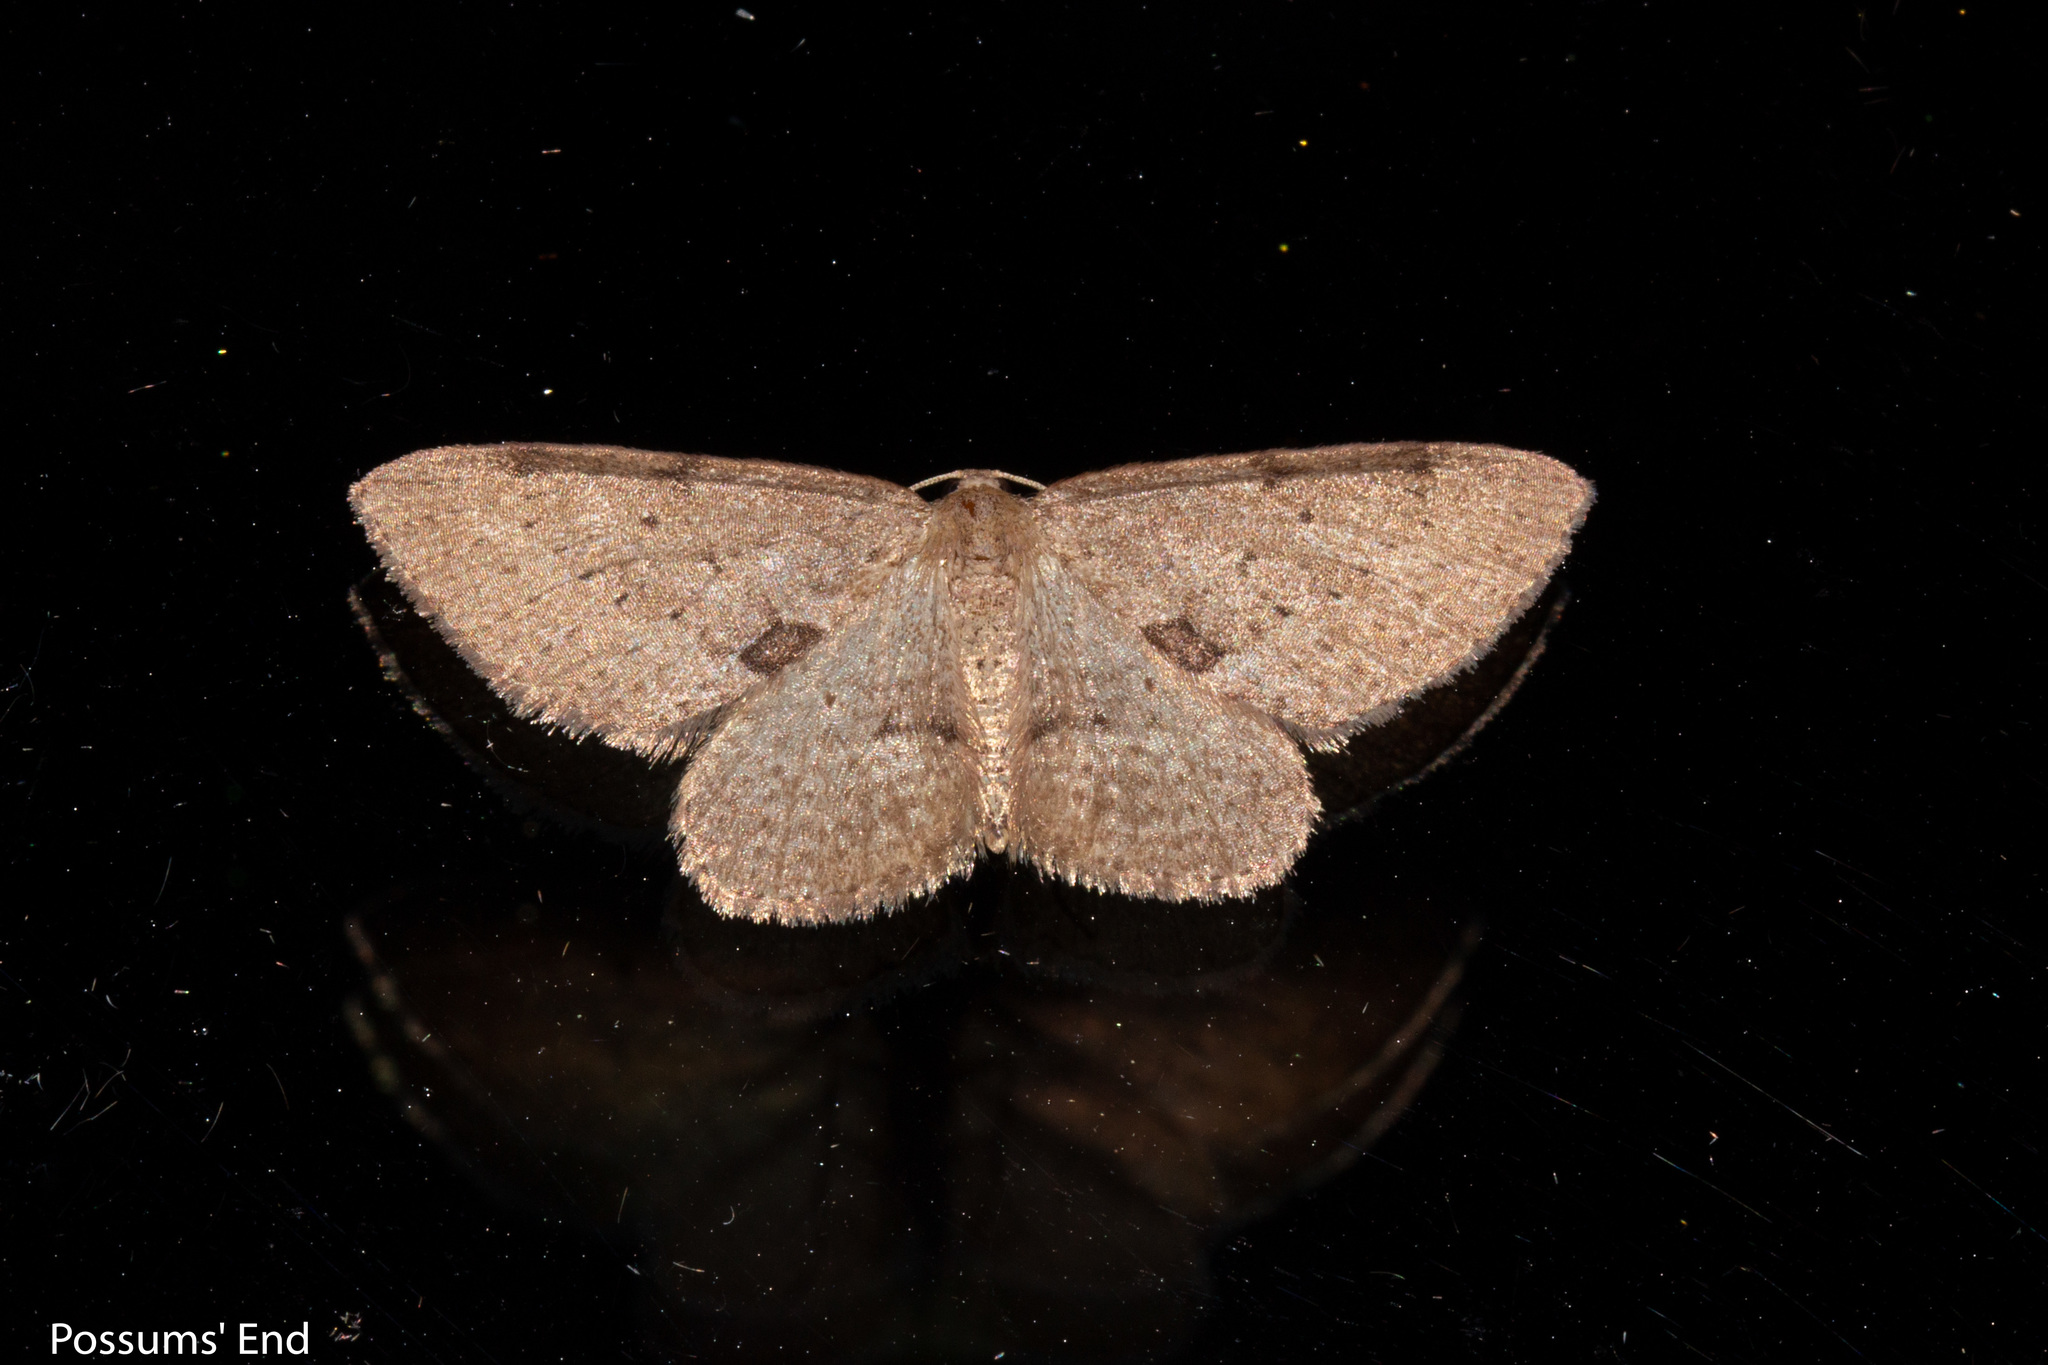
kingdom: Animalia
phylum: Arthropoda
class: Insecta
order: Lepidoptera
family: Geometridae
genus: Poecilasthena
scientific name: Poecilasthena schistaria
